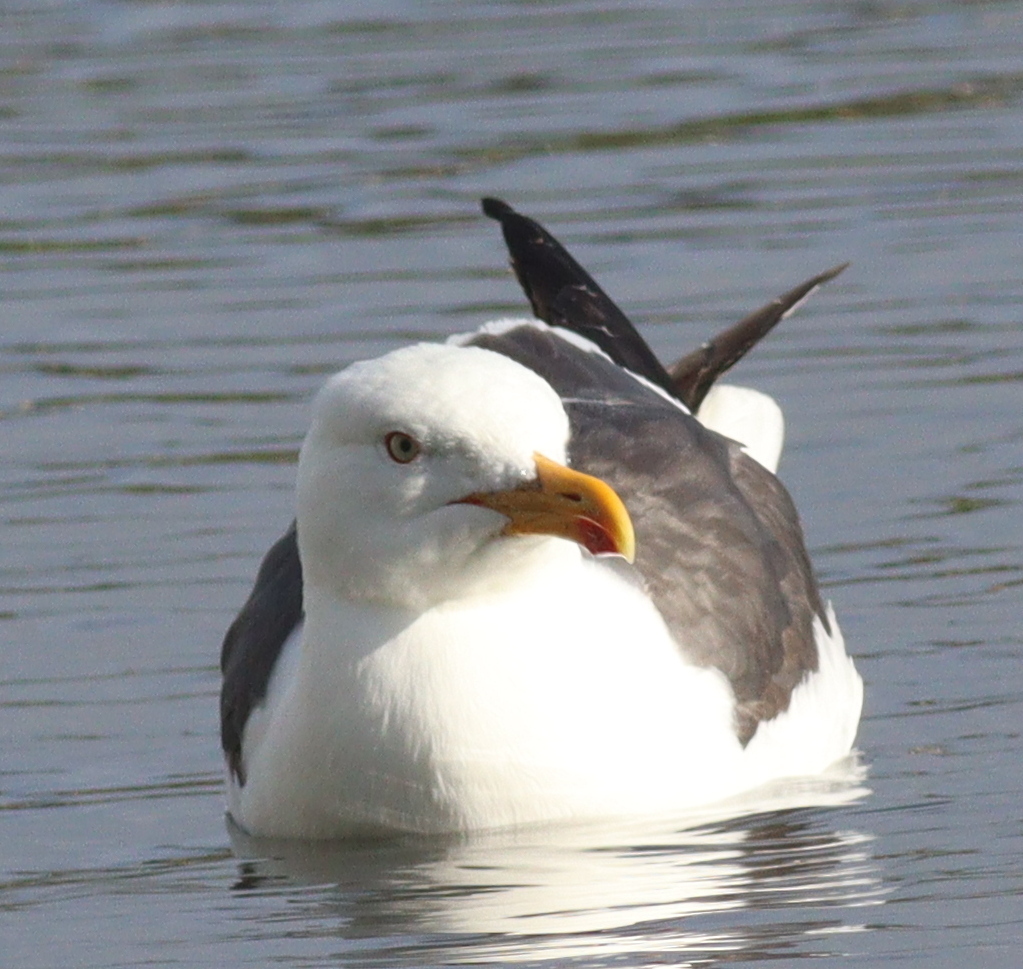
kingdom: Animalia
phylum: Chordata
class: Aves
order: Charadriiformes
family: Laridae
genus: Larus
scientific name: Larus fuscus
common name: Lesser black-backed gull
